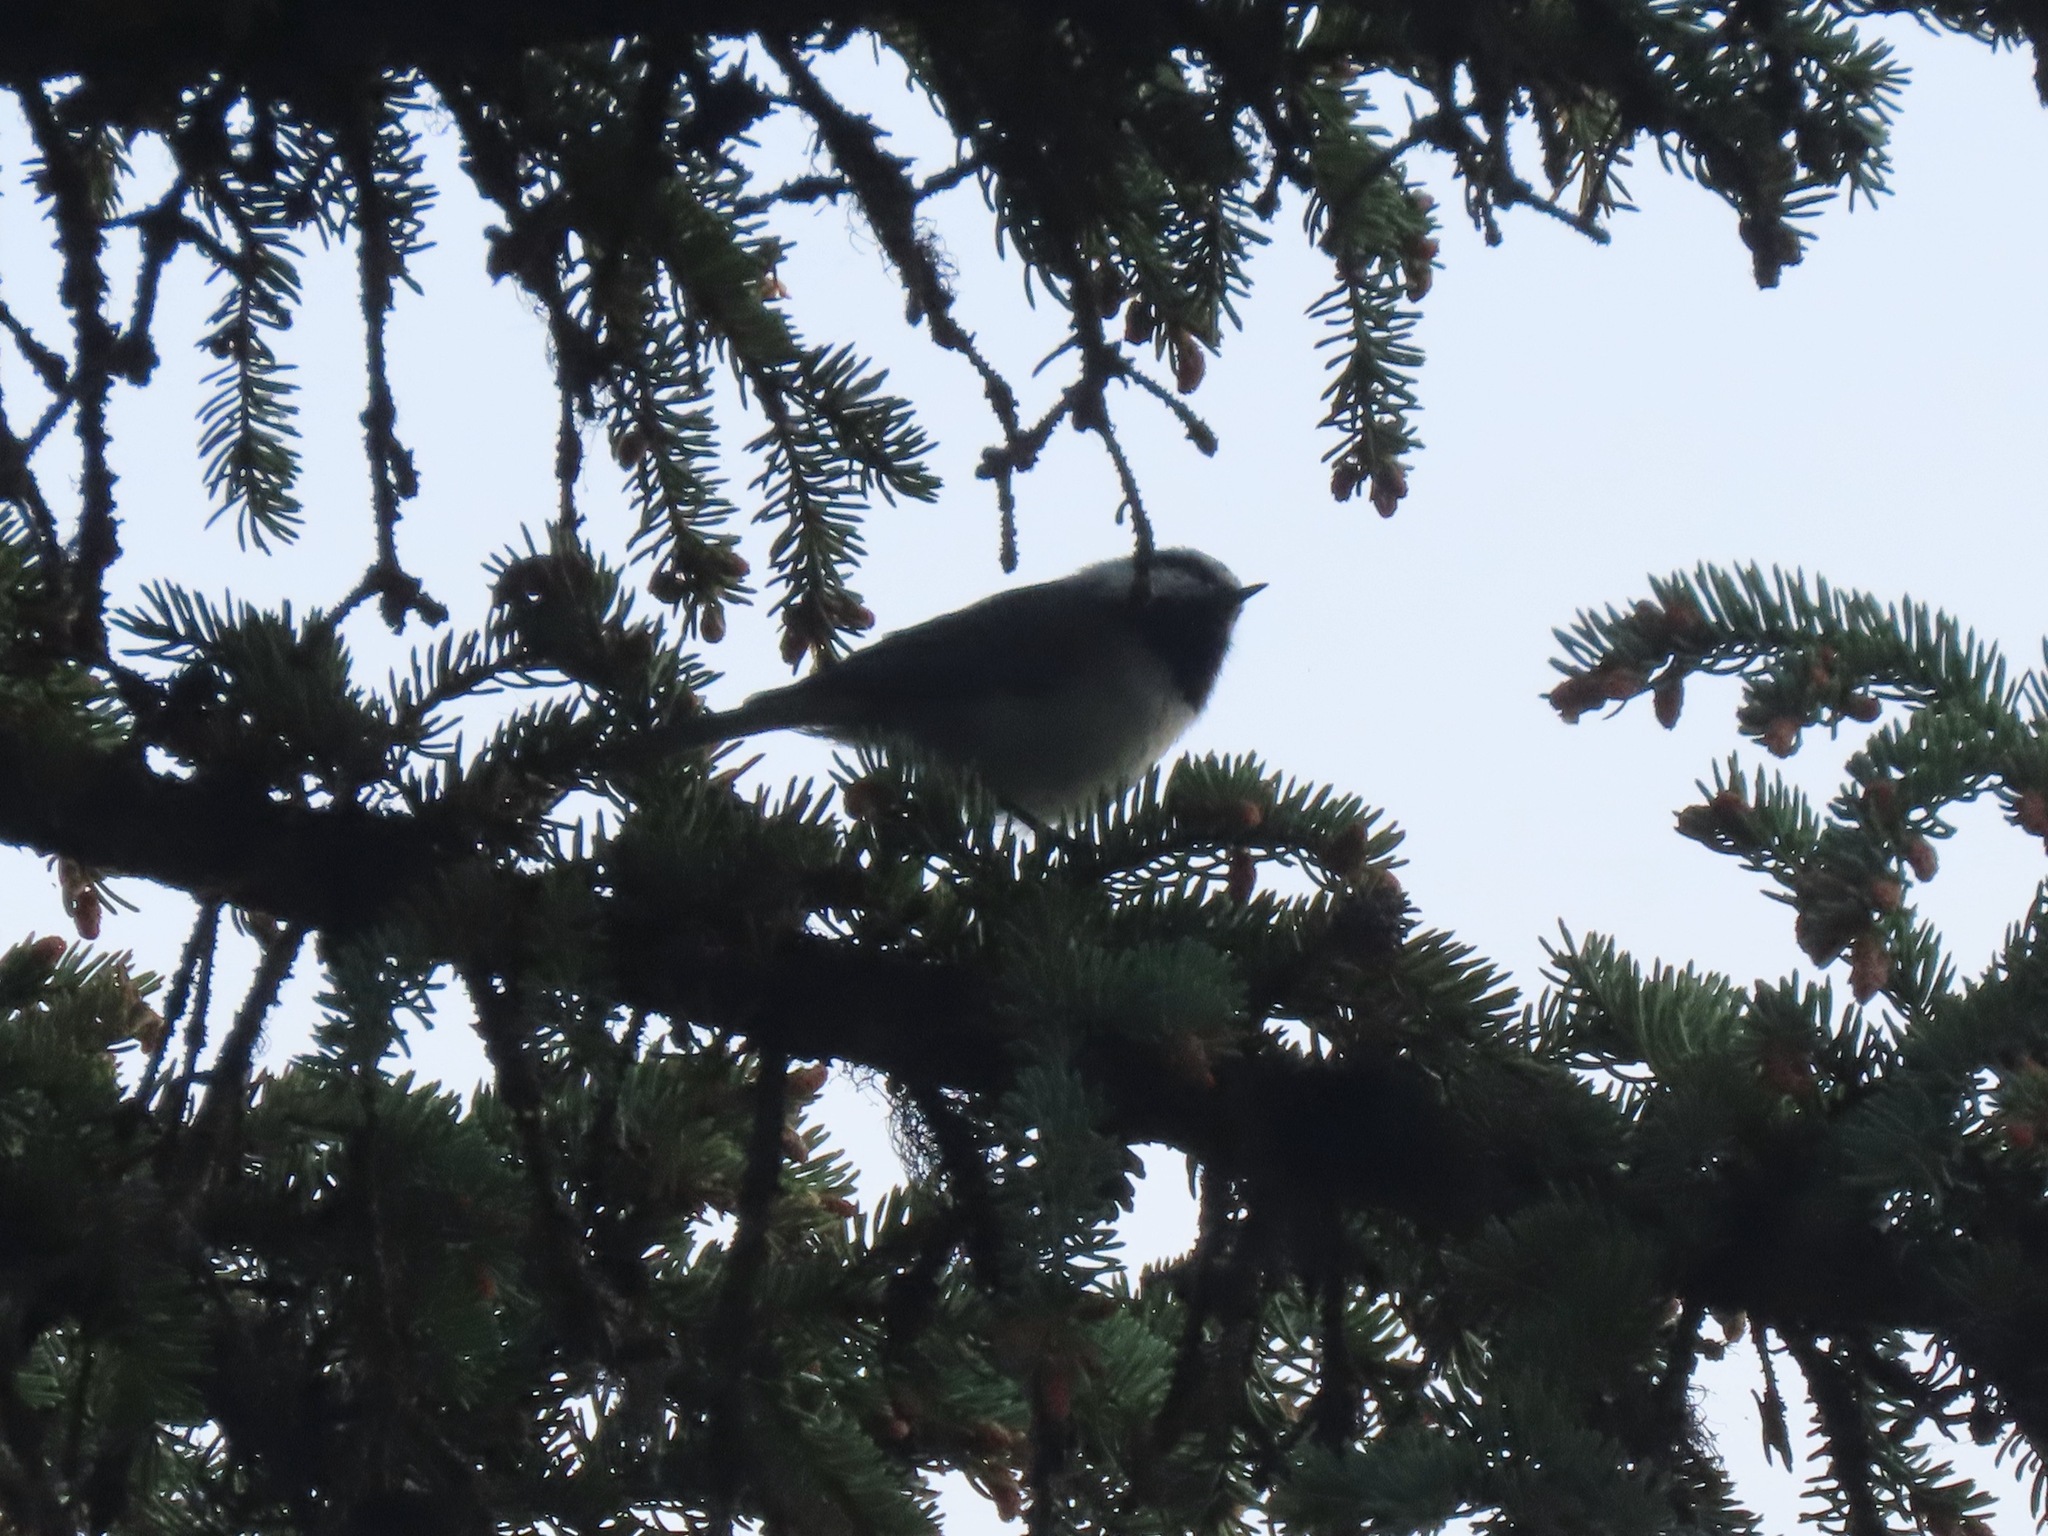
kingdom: Animalia
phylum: Chordata
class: Aves
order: Passeriformes
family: Paridae
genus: Poecile
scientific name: Poecile gambeli
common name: Mountain chickadee
